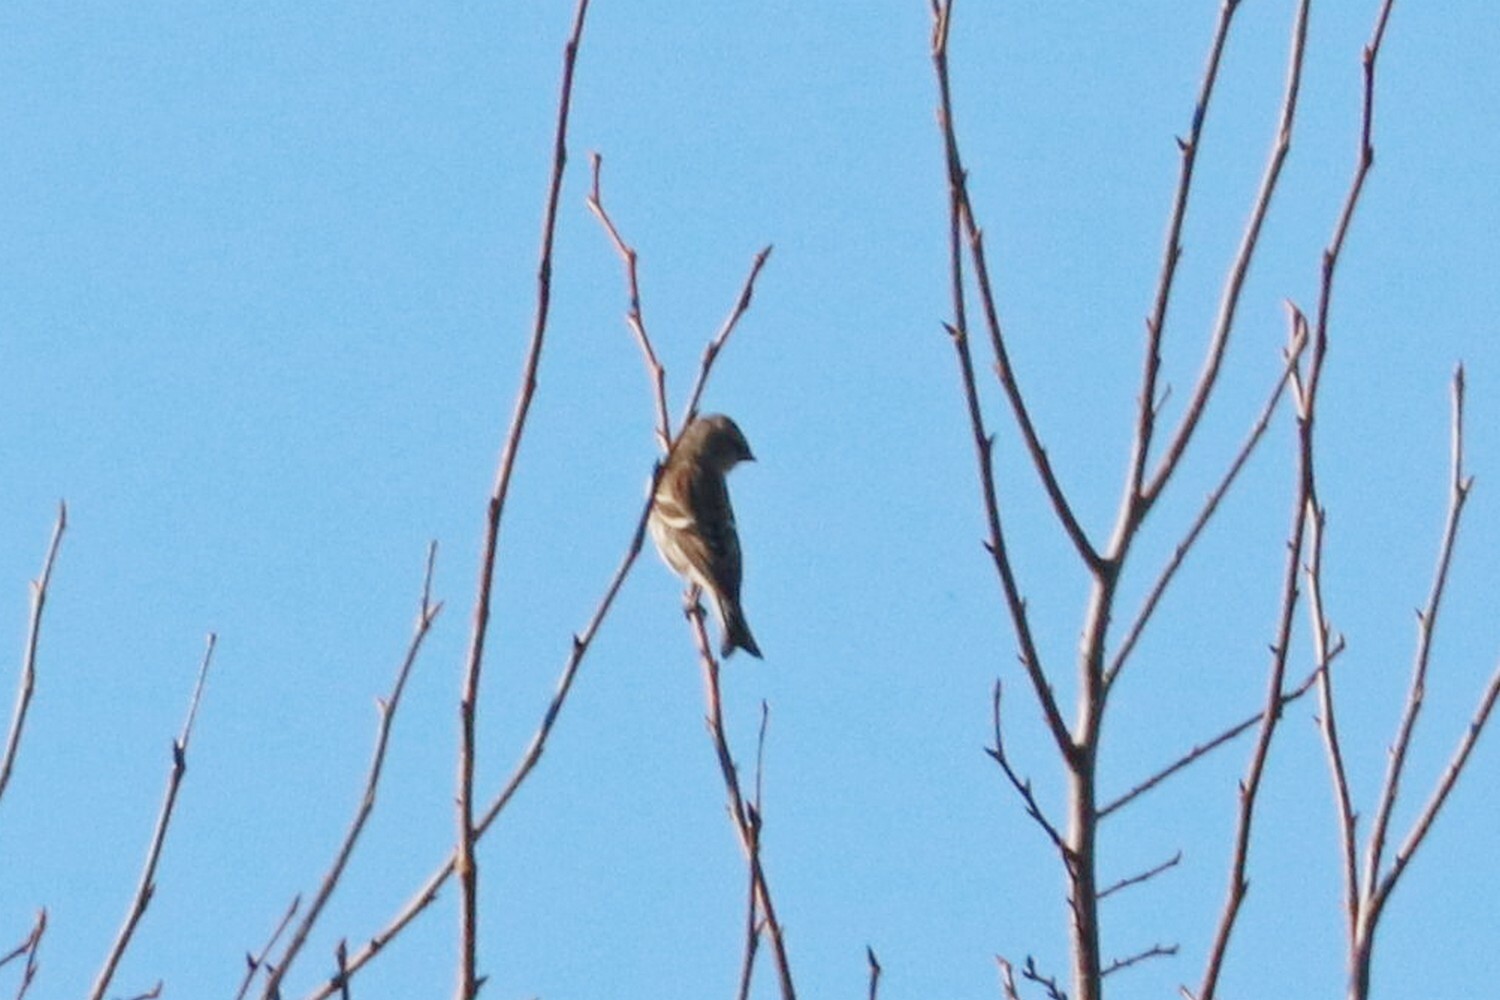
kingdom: Animalia
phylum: Chordata
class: Aves
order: Passeriformes
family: Fringillidae
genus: Acanthis
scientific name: Acanthis flammea
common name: Common redpoll
